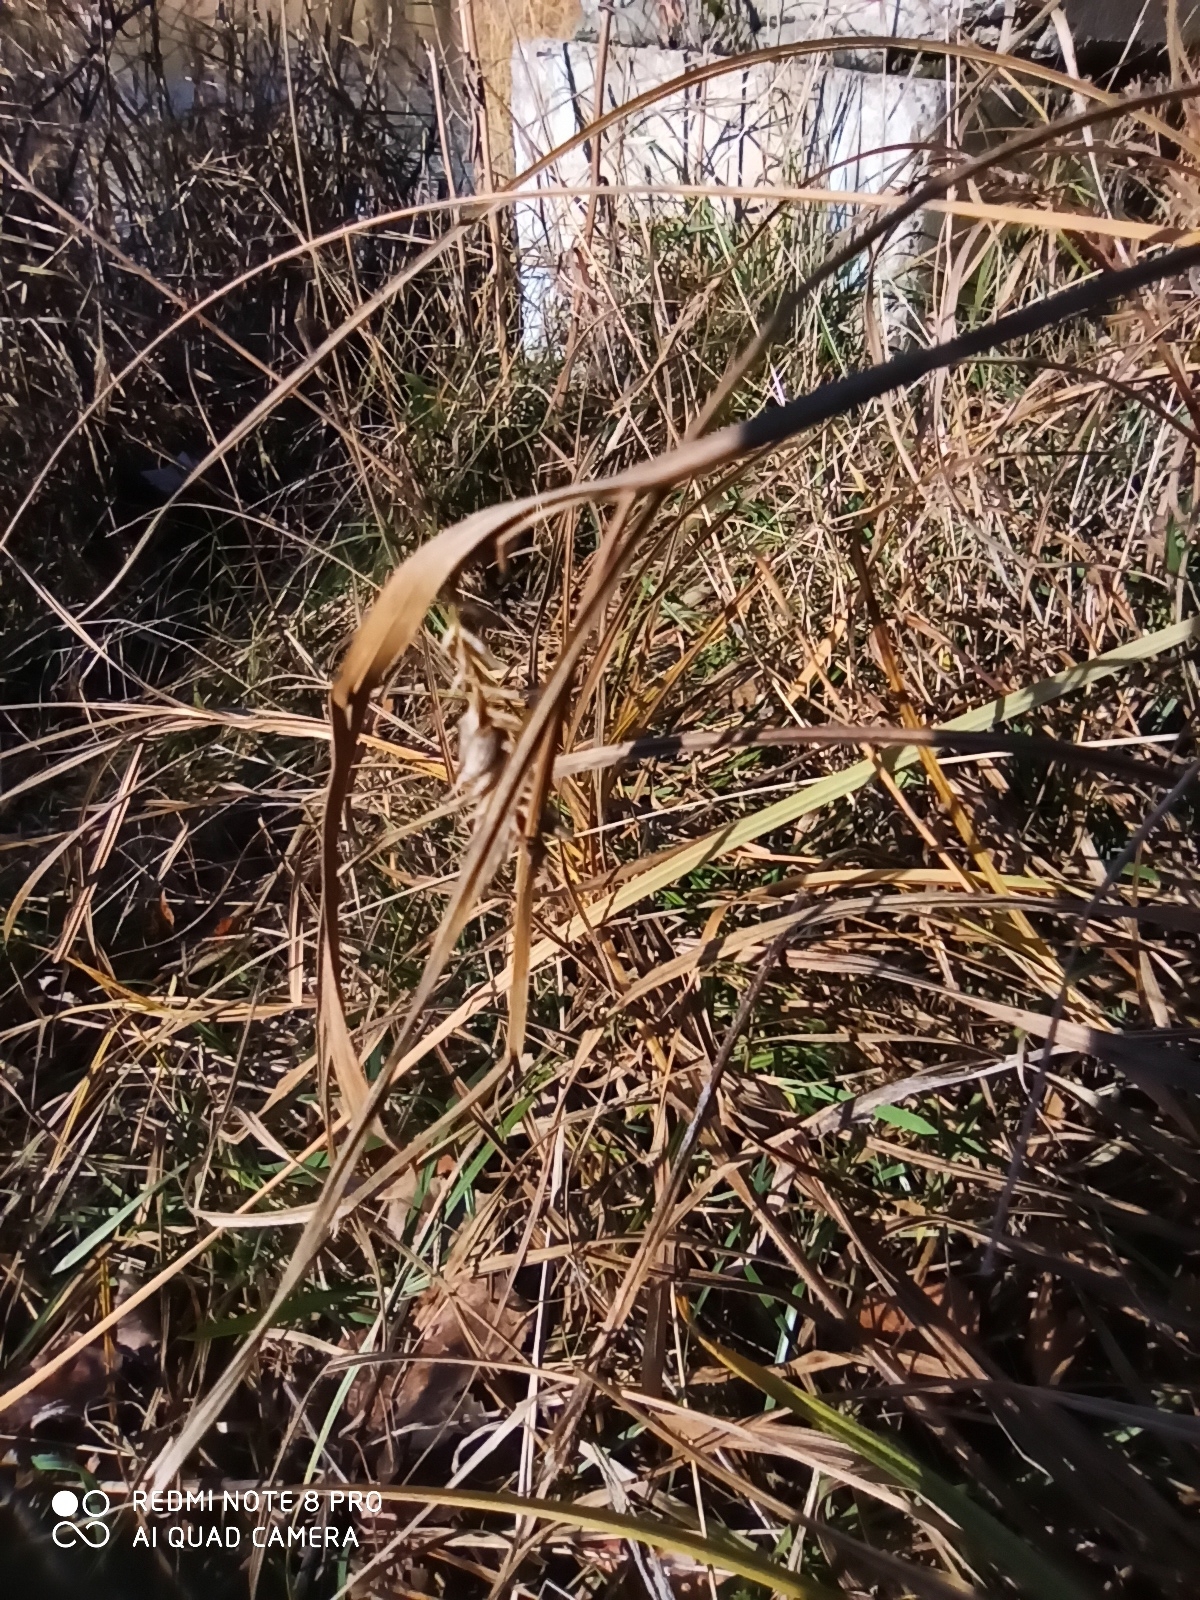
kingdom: Plantae
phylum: Tracheophyta
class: Liliopsida
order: Poales
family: Cyperaceae
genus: Carex
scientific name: Carex atherodes
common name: Wheat sedge
